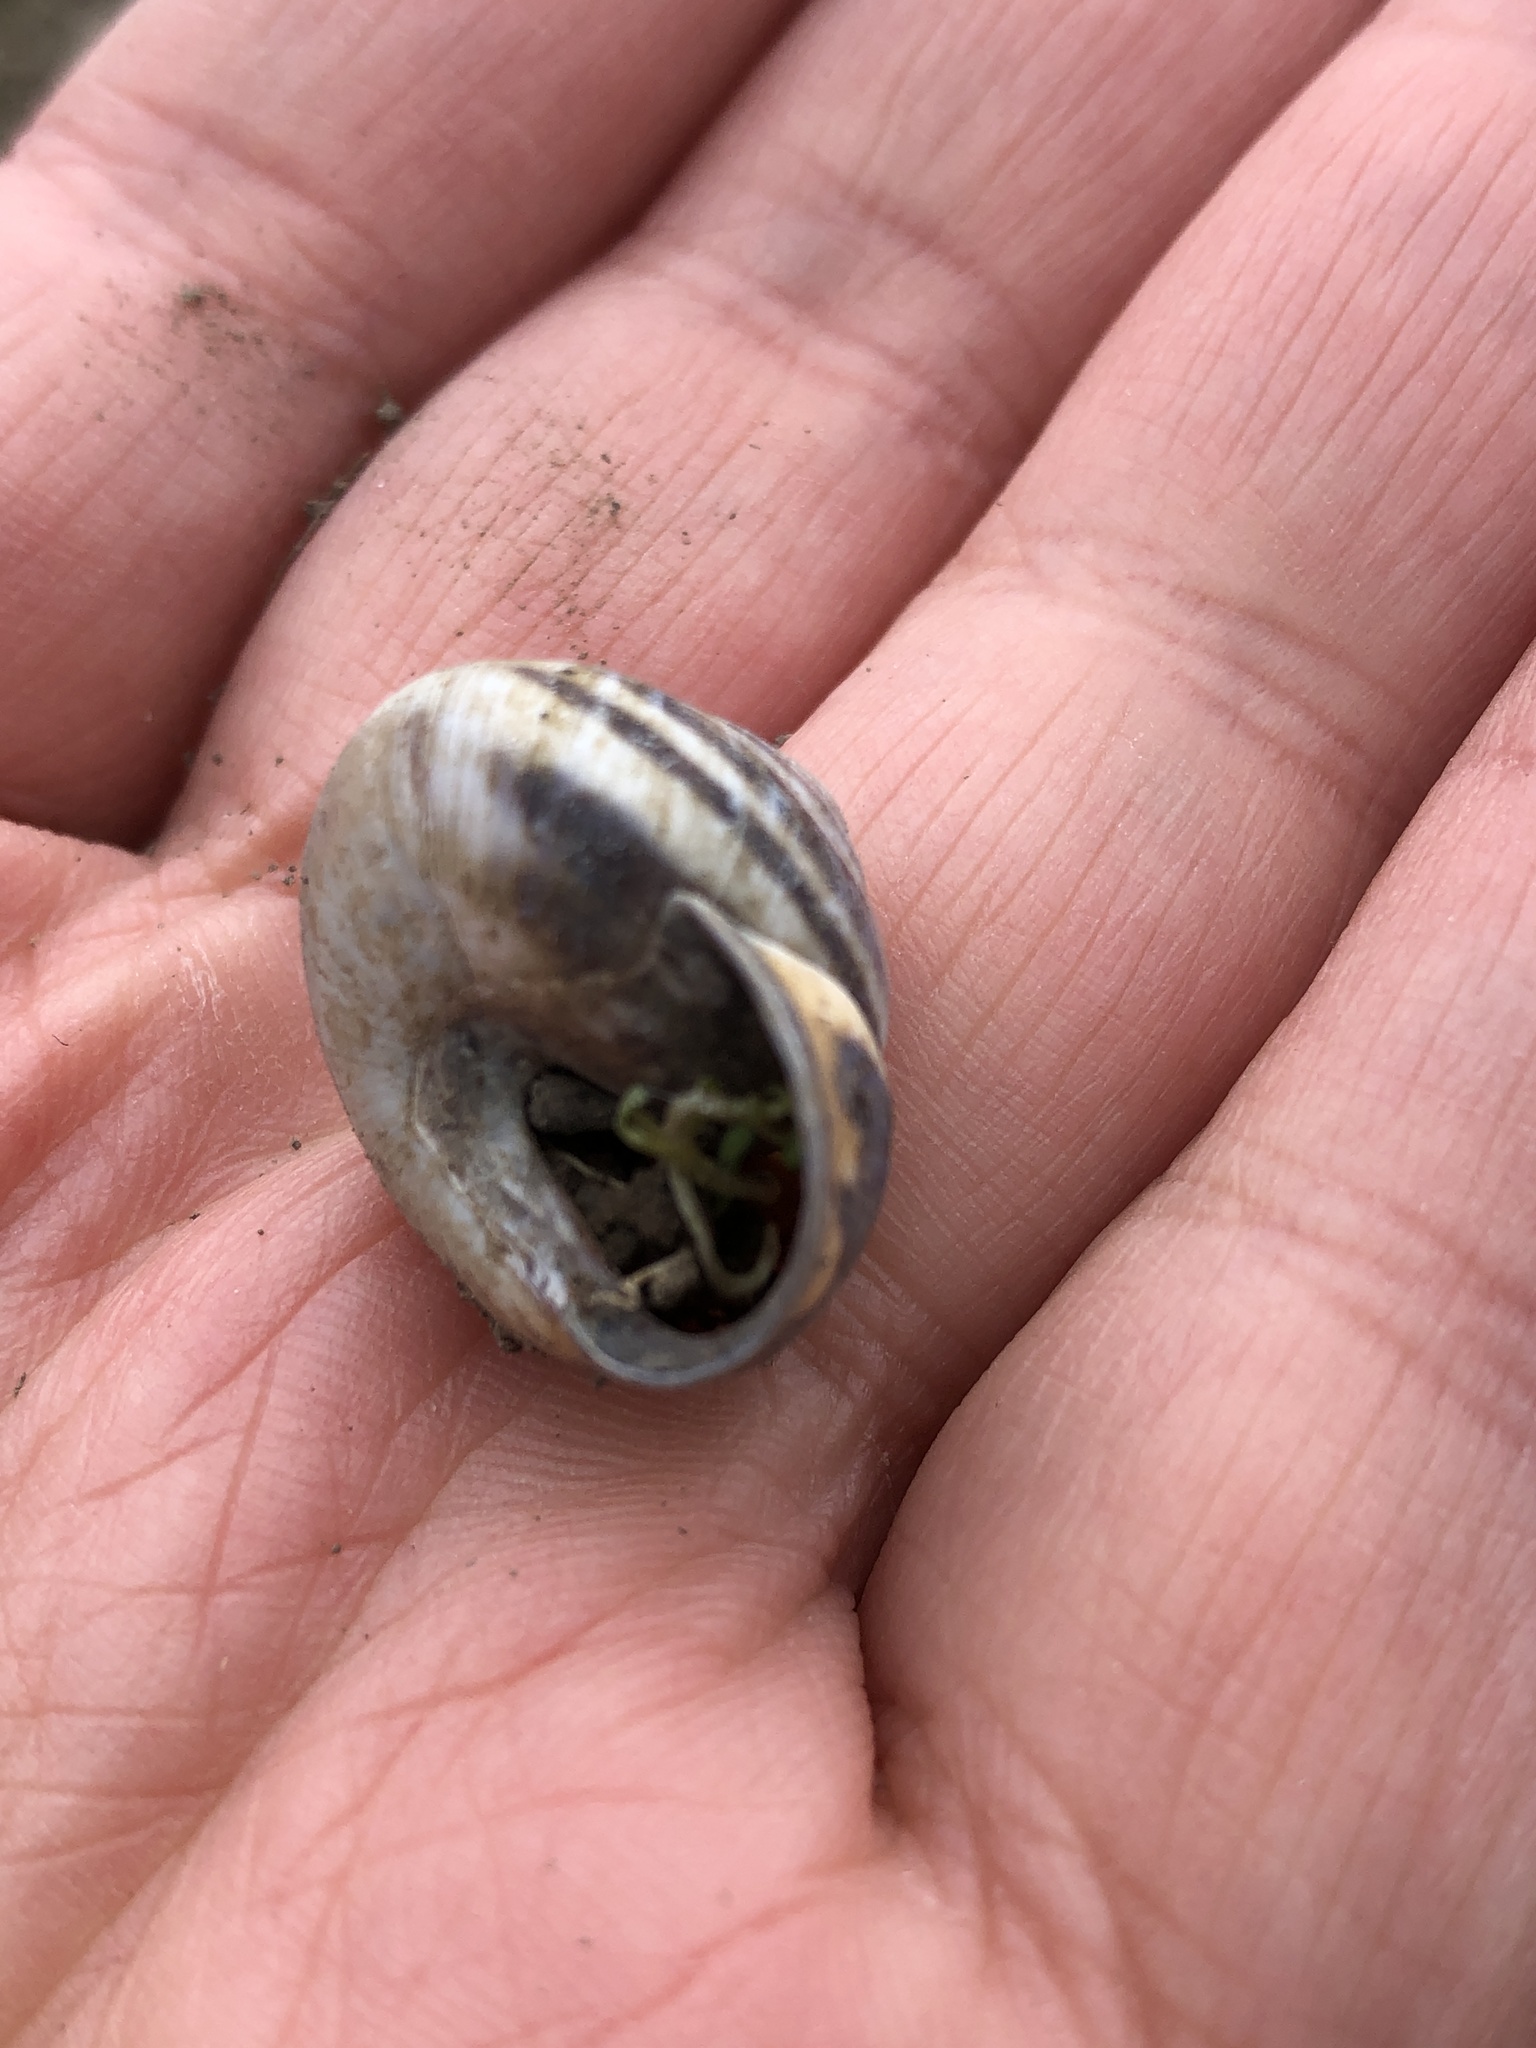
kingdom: Animalia
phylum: Mollusca
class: Gastropoda
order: Stylommatophora
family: Helicidae
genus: Cepaea
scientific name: Cepaea nemoralis
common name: Grovesnail
